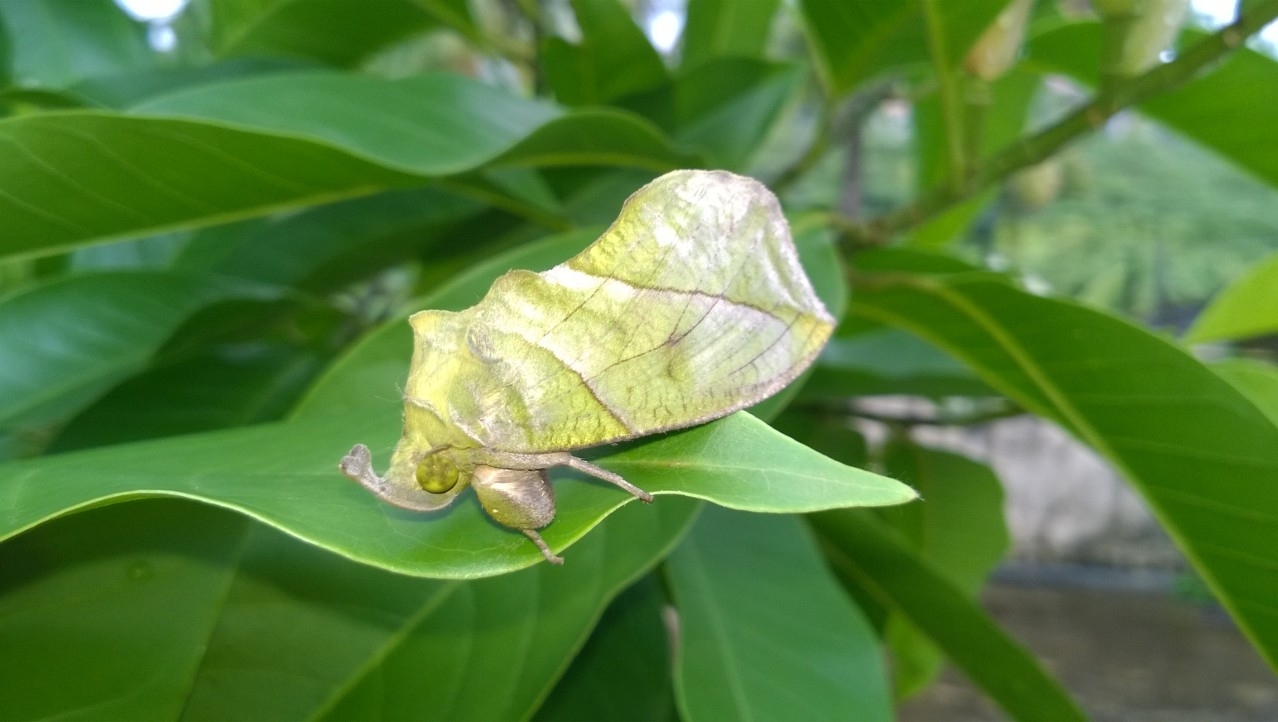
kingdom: Animalia
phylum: Arthropoda
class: Insecta
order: Lepidoptera
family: Erebidae
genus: Eudocima
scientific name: Eudocima hypermnestra
